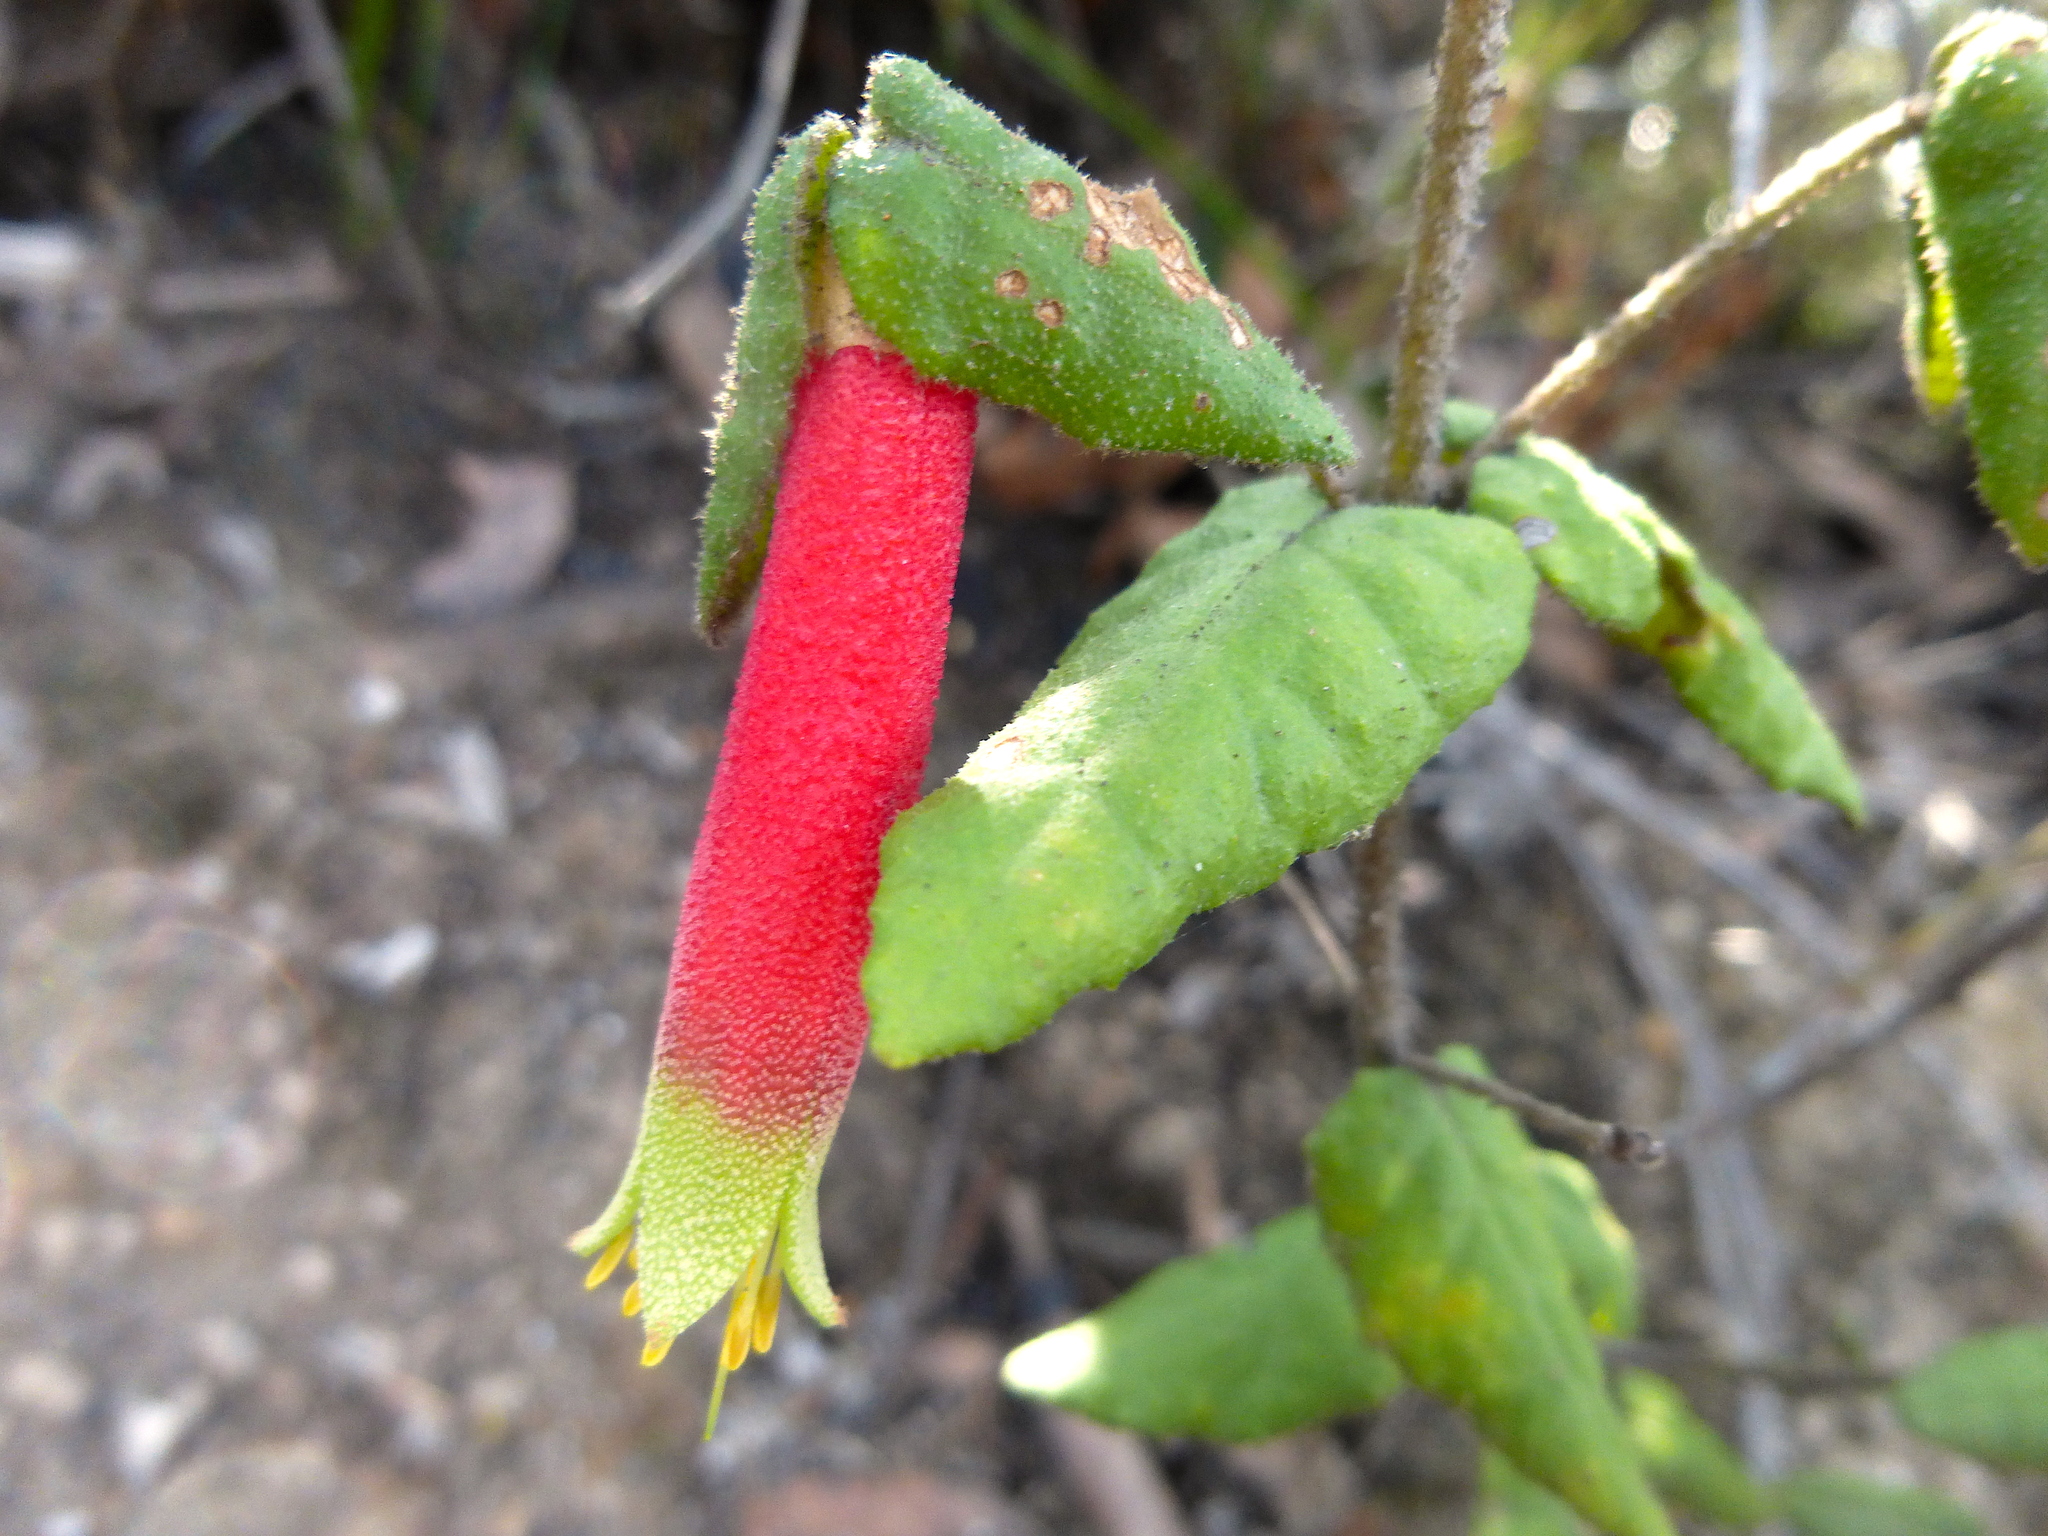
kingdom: Plantae
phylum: Tracheophyta
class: Magnoliopsida
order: Sapindales
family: Rutaceae
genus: Correa
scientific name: Correa reflexa
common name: Common correa
